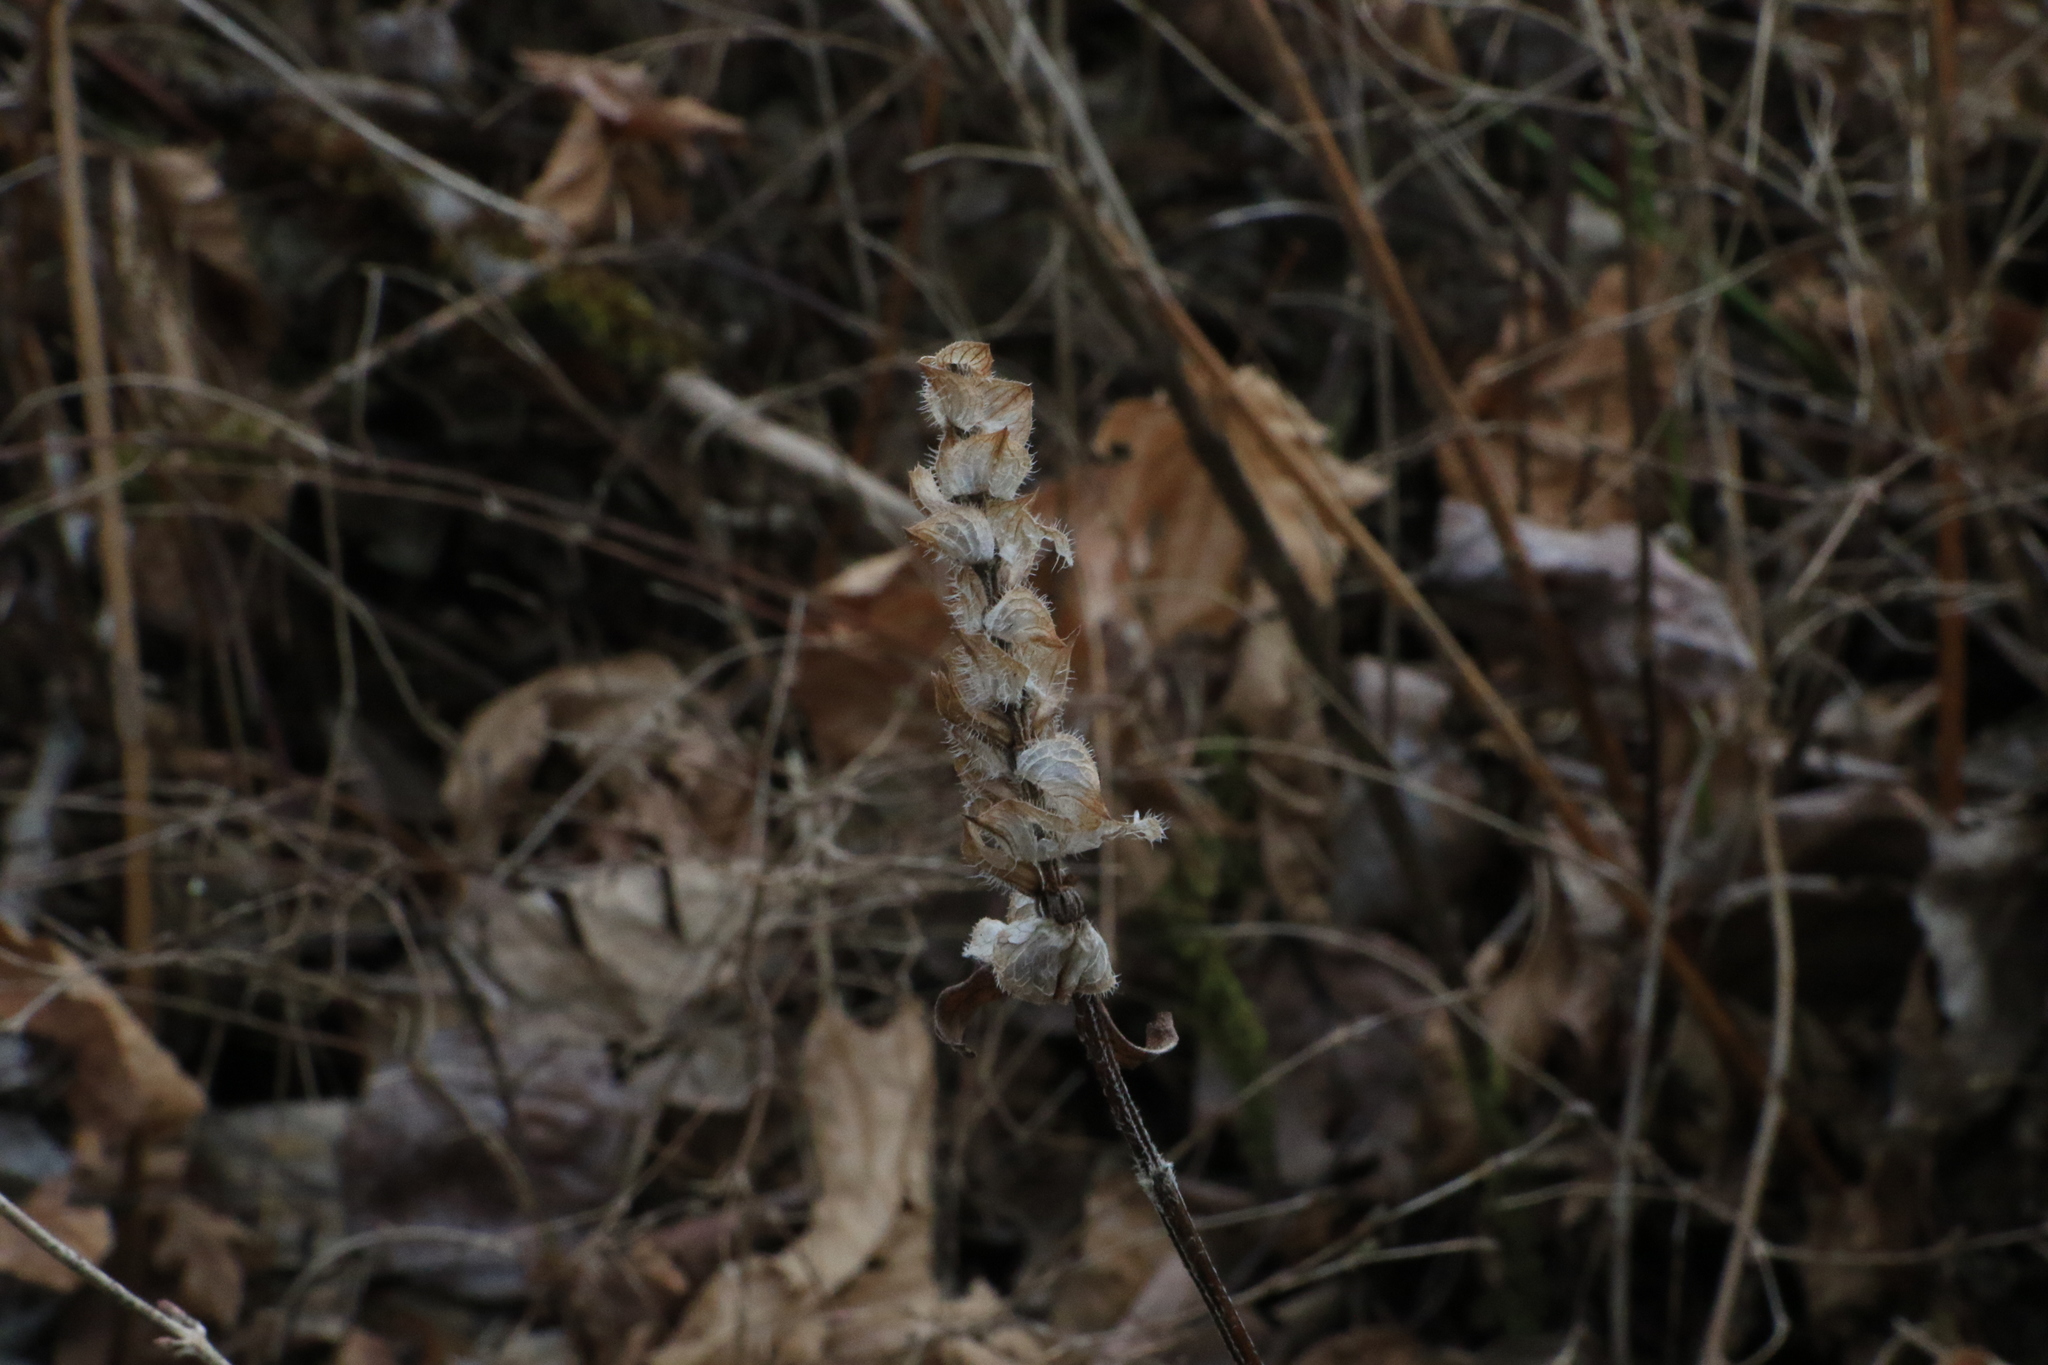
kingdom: Plantae
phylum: Tracheophyta
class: Magnoliopsida
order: Lamiales
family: Lamiaceae
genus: Prunella
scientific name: Prunella vulgaris
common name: Heal-all
